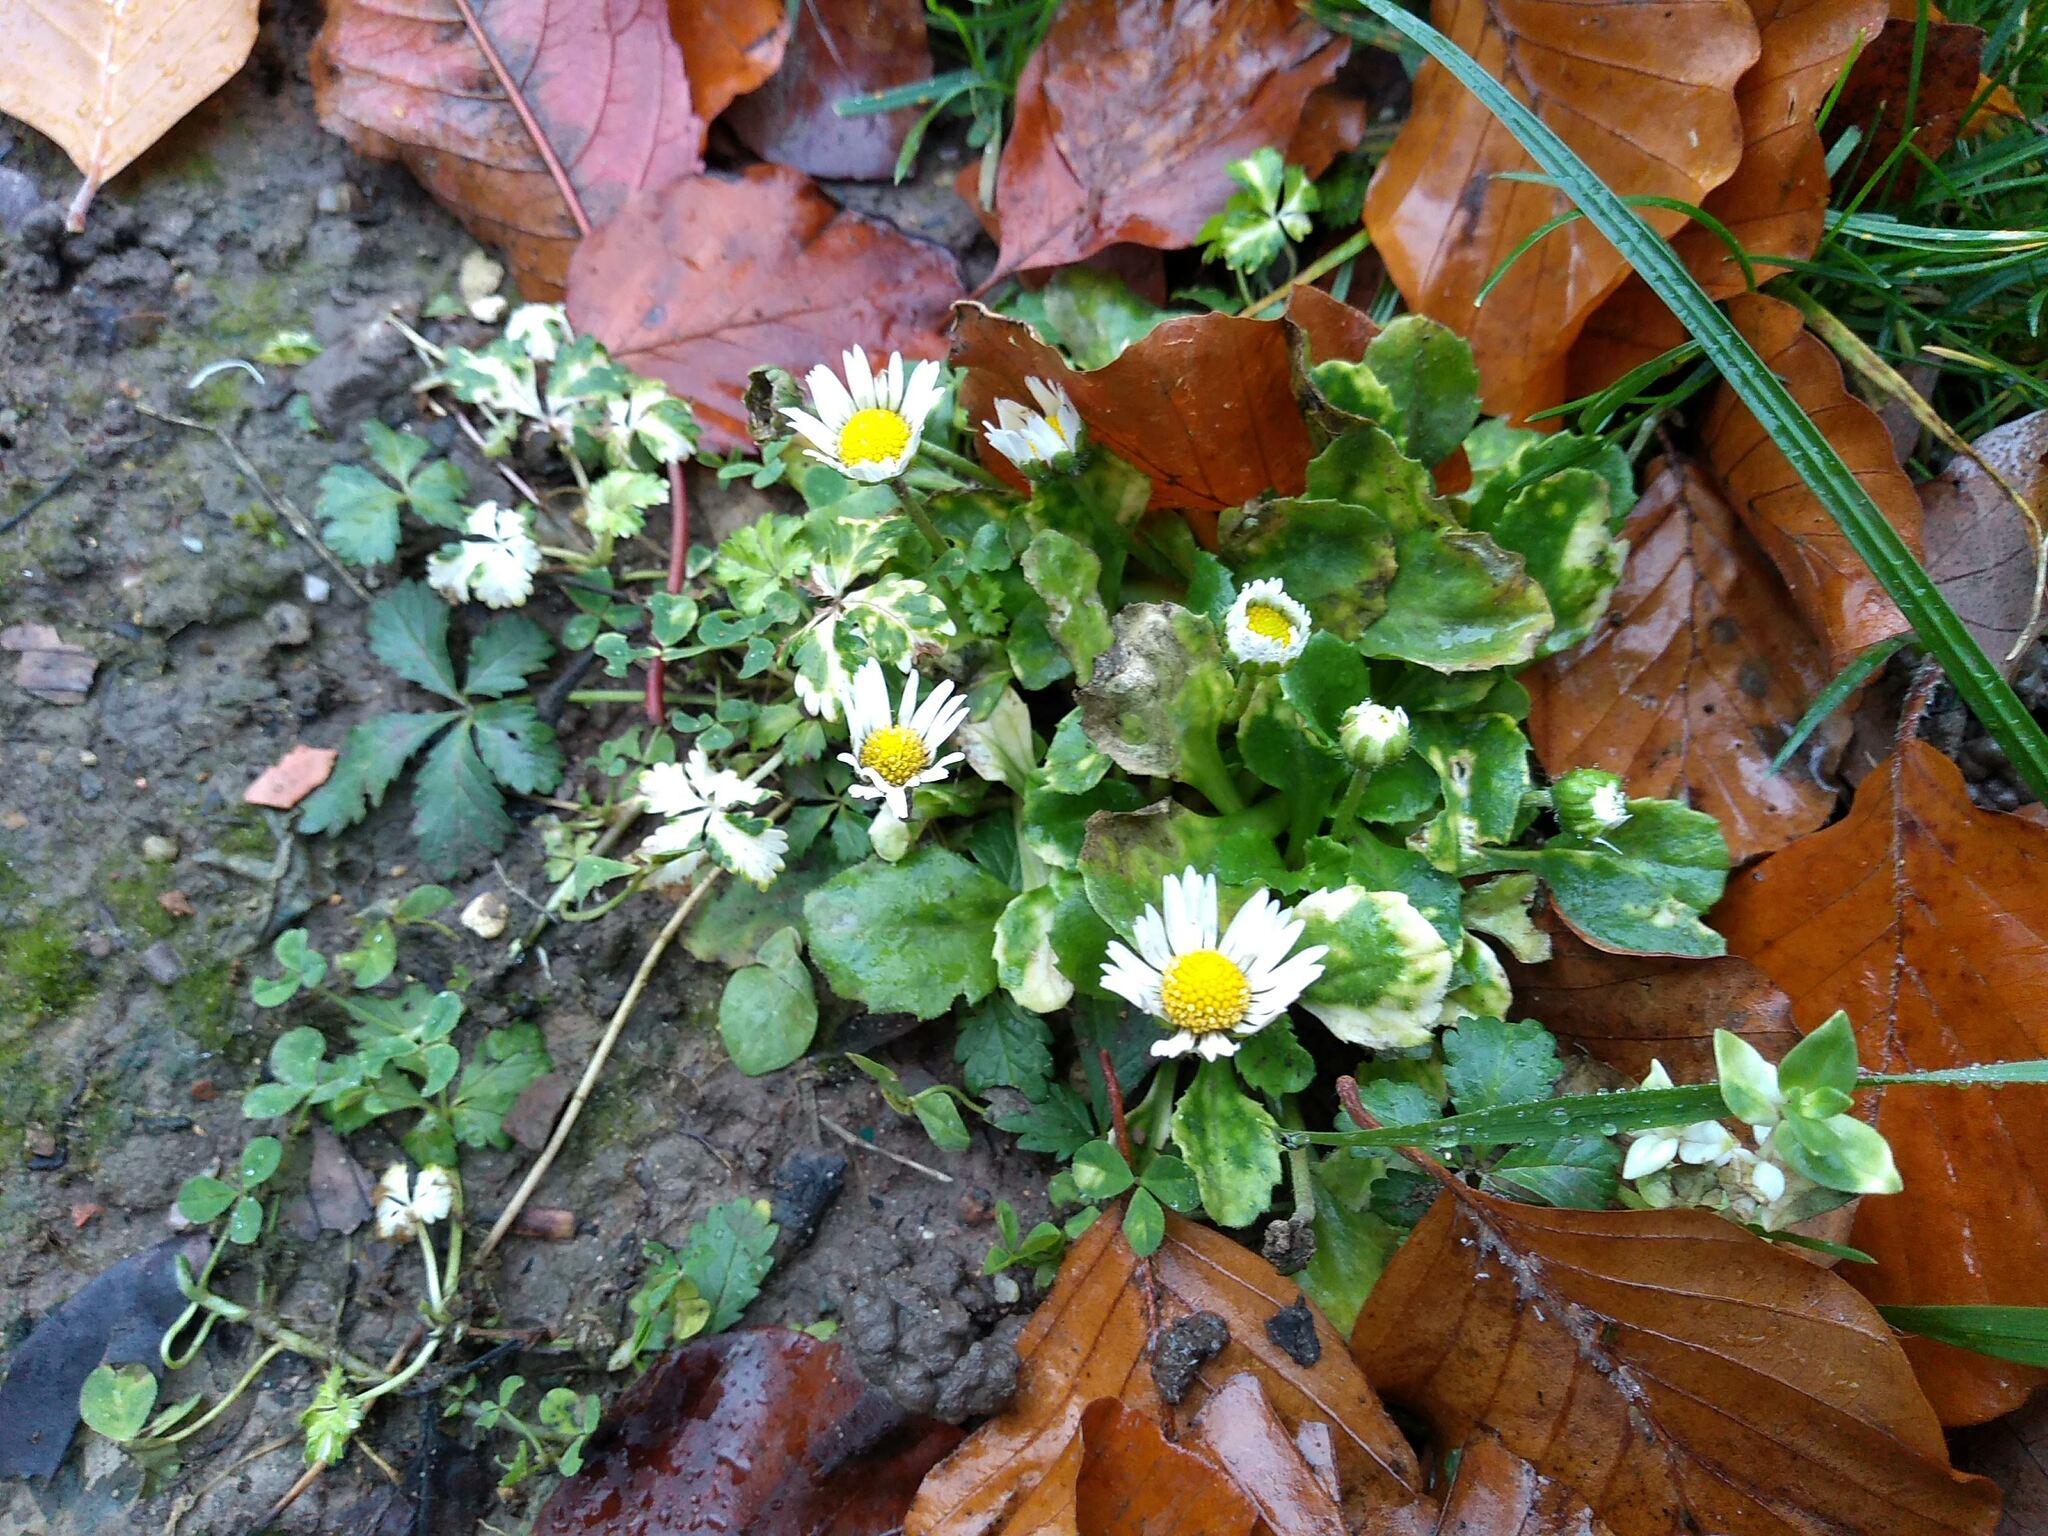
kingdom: Plantae
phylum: Tracheophyta
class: Magnoliopsida
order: Asterales
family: Asteraceae
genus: Bellis
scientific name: Bellis perennis
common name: Lawndaisy
